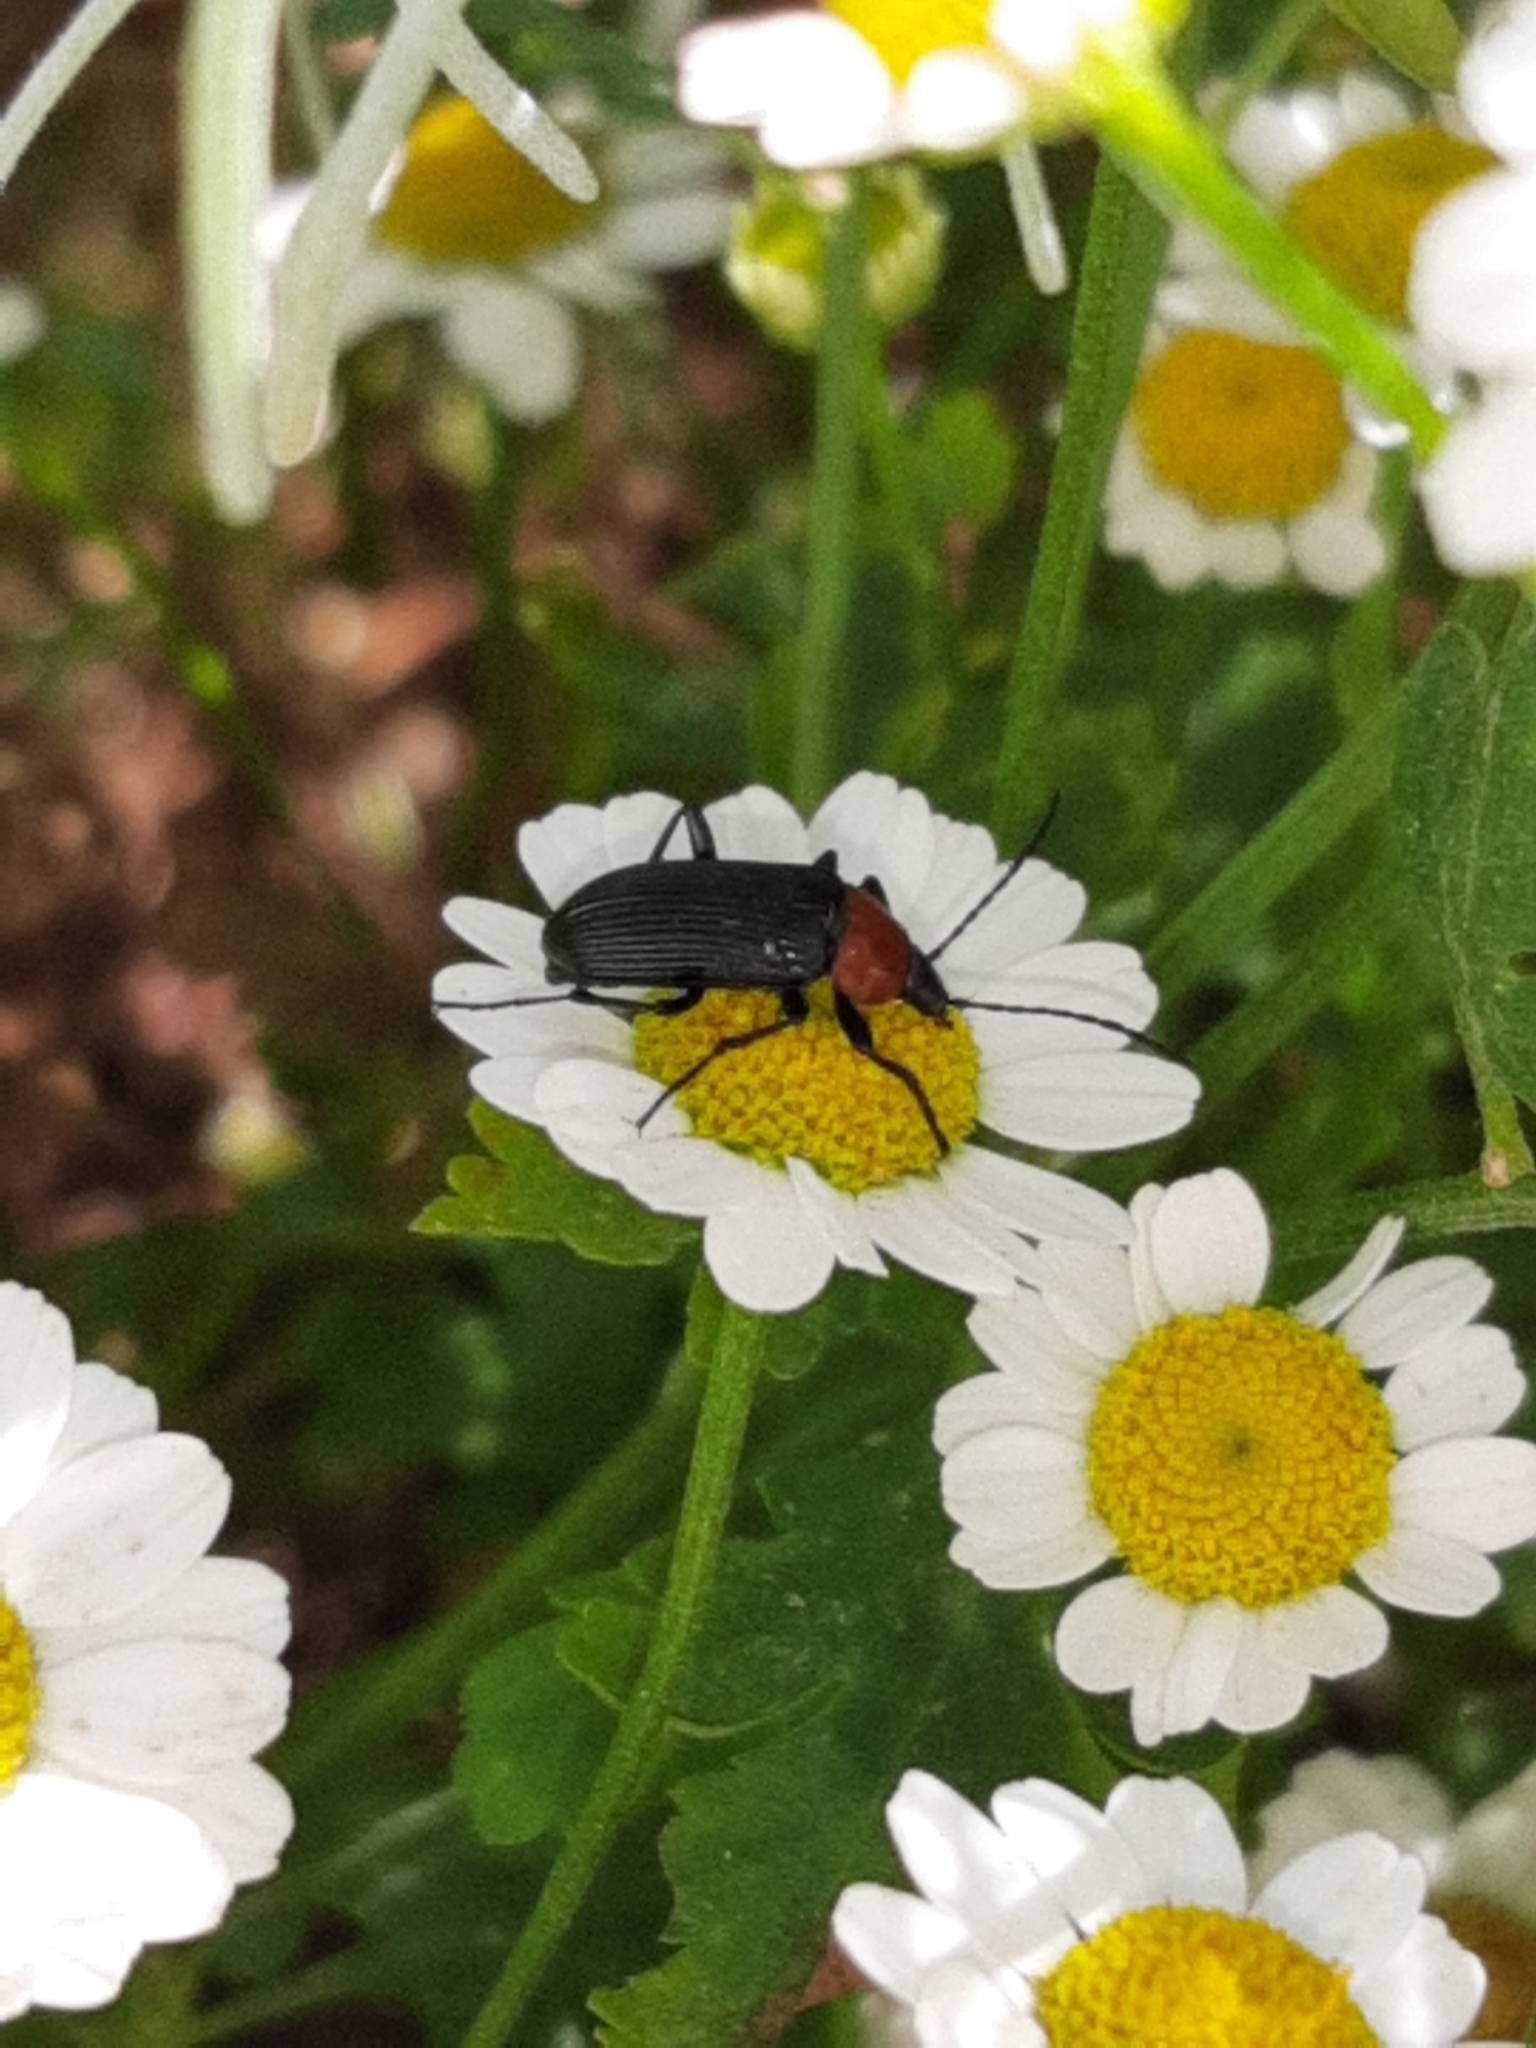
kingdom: Animalia
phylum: Arthropoda
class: Insecta
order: Coleoptera
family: Tenebrionidae
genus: Heliotaurus
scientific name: Heliotaurus ruficollis
